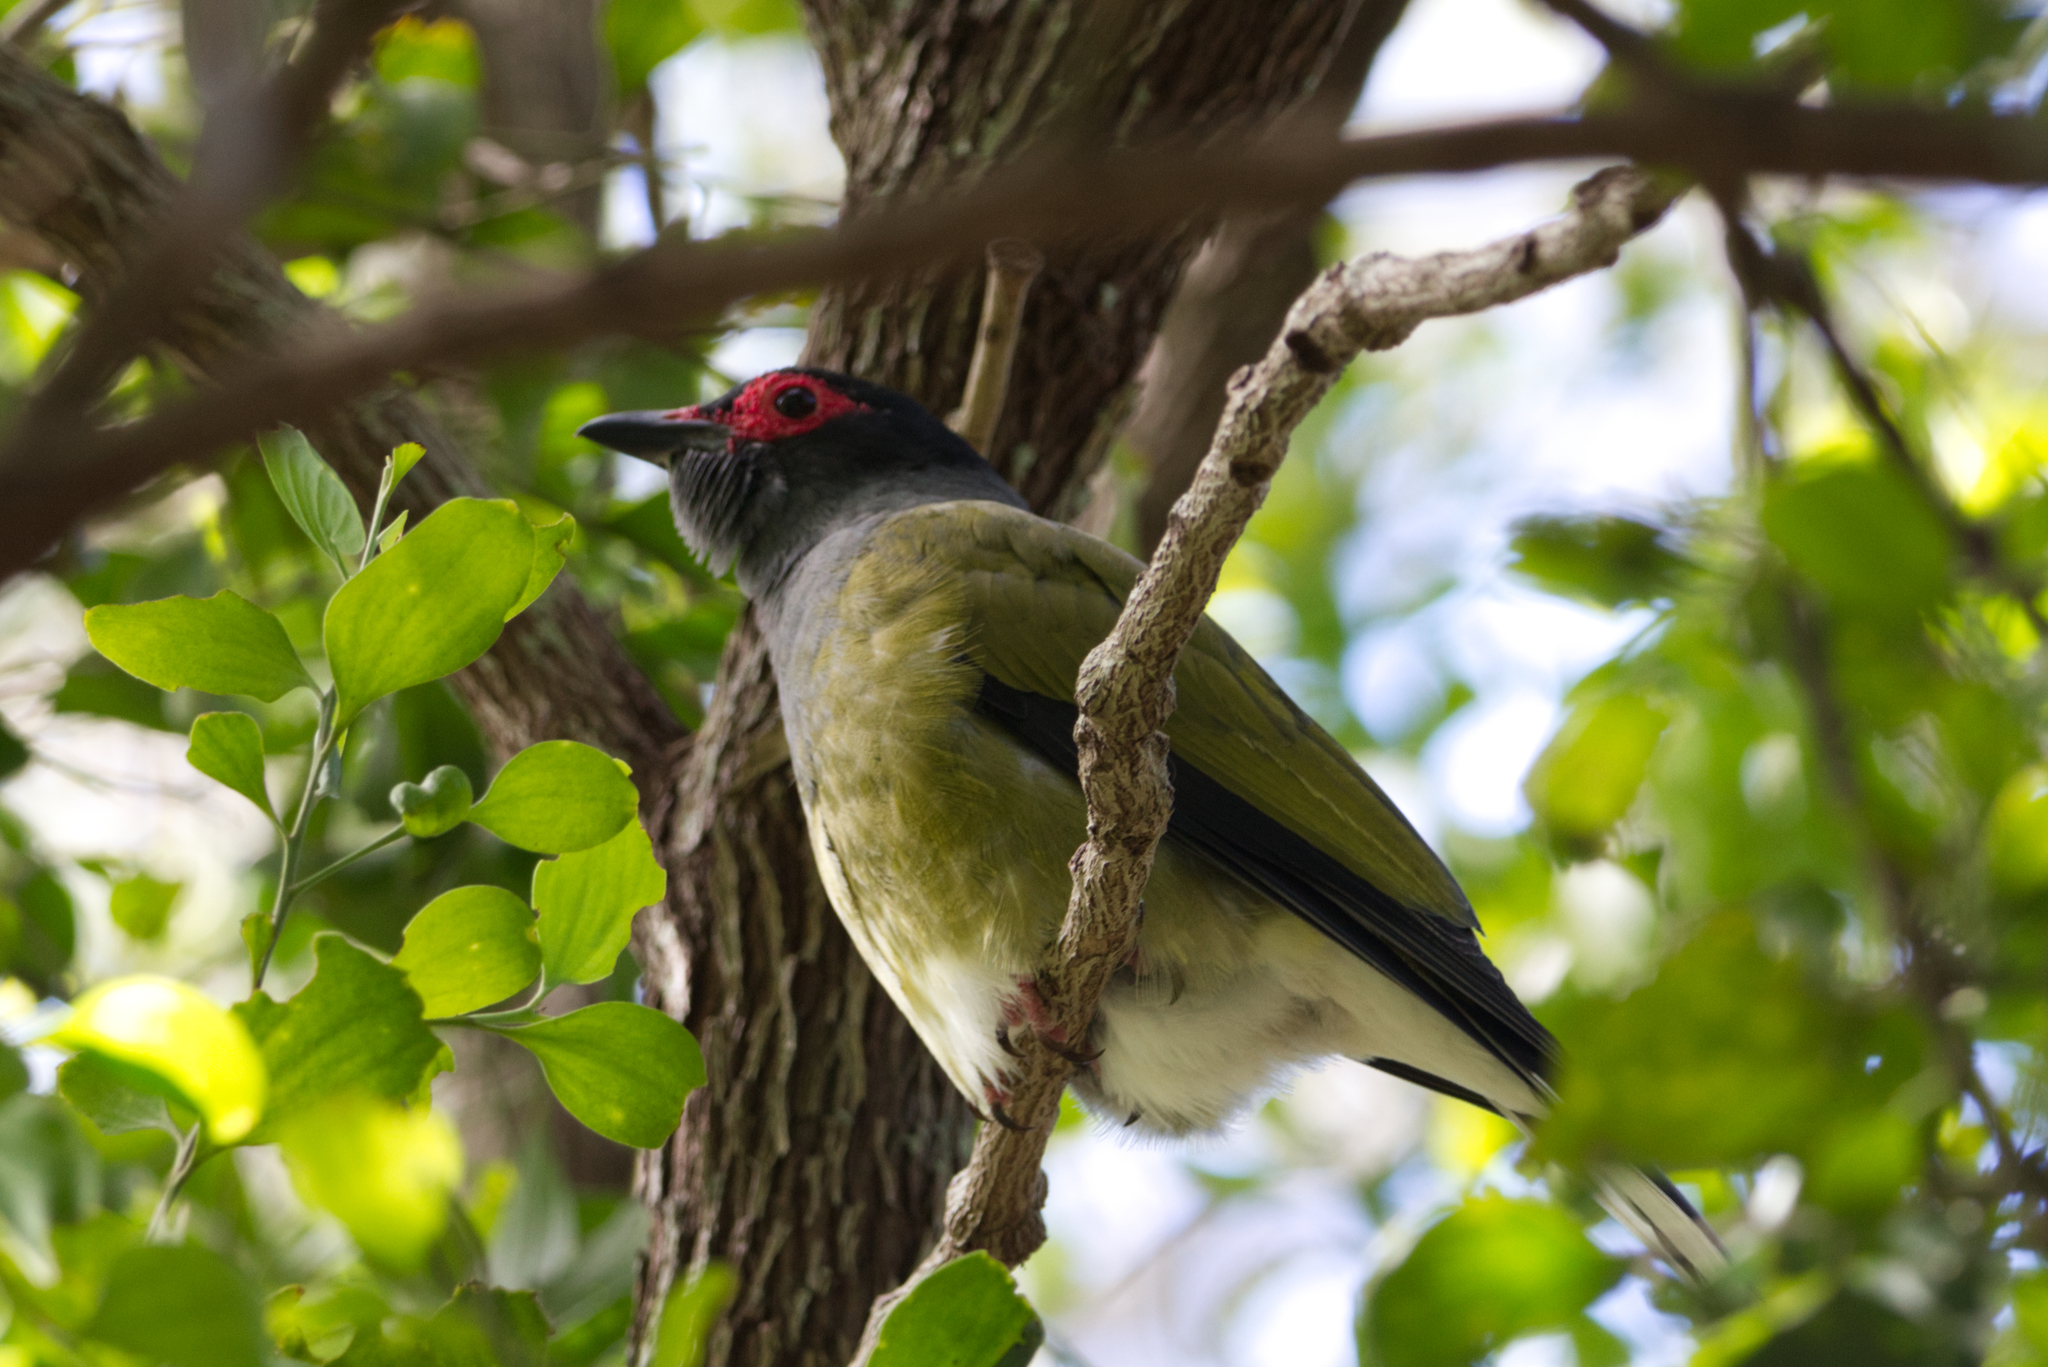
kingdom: Animalia
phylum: Chordata
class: Aves
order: Passeriformes
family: Oriolidae
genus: Sphecotheres
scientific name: Sphecotheres vieilloti
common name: Australasian figbird
